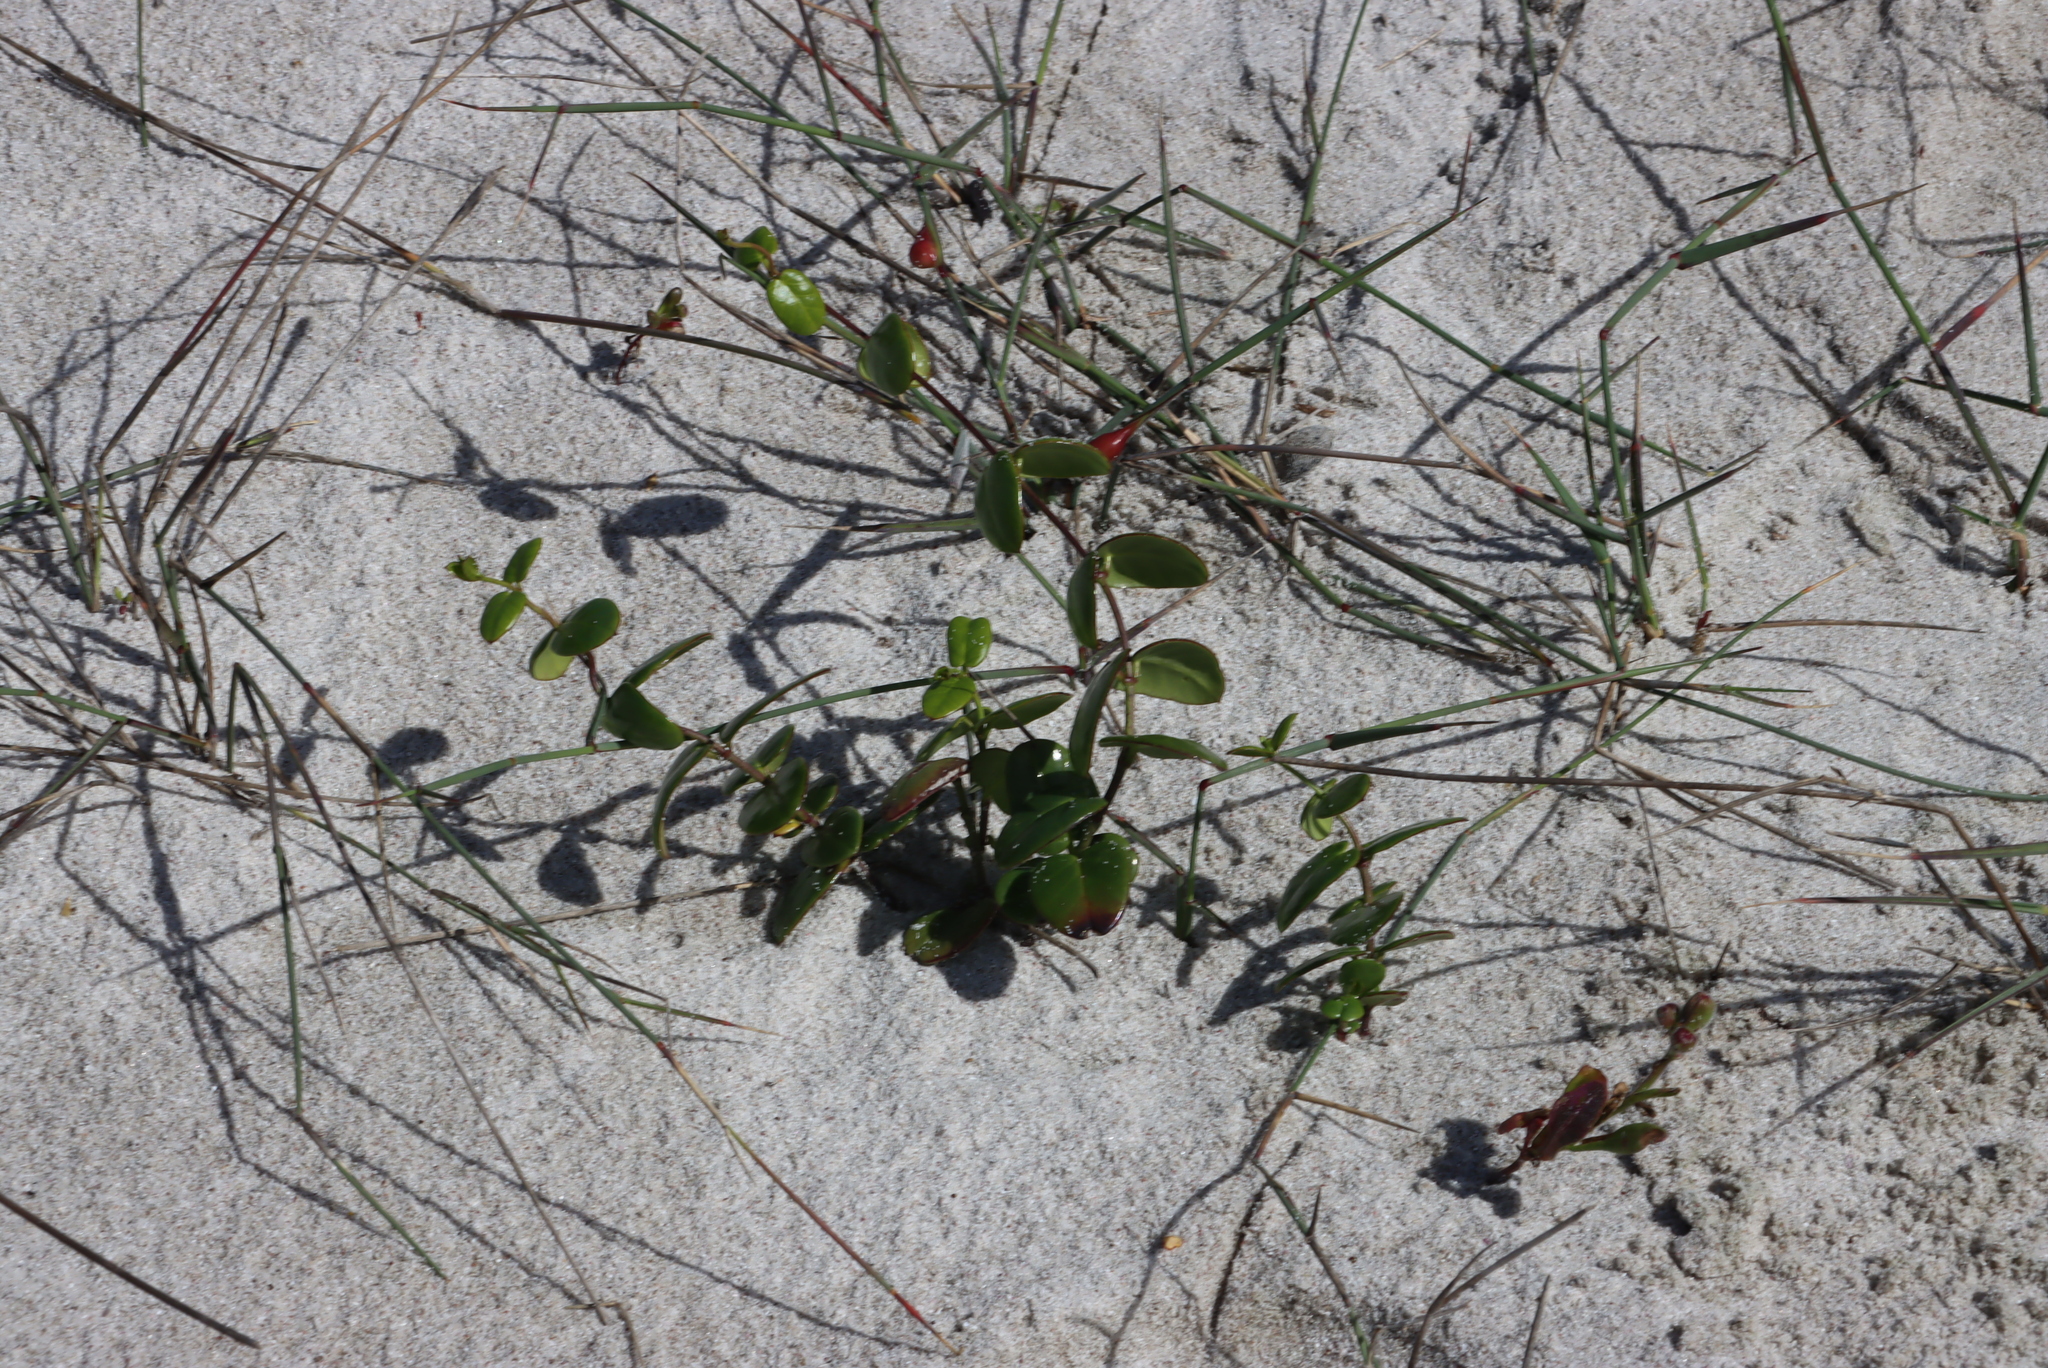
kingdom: Plantae
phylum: Tracheophyta
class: Magnoliopsida
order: Gentianales
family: Apocynaceae
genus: Cynanchum
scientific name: Cynanchum africanum
